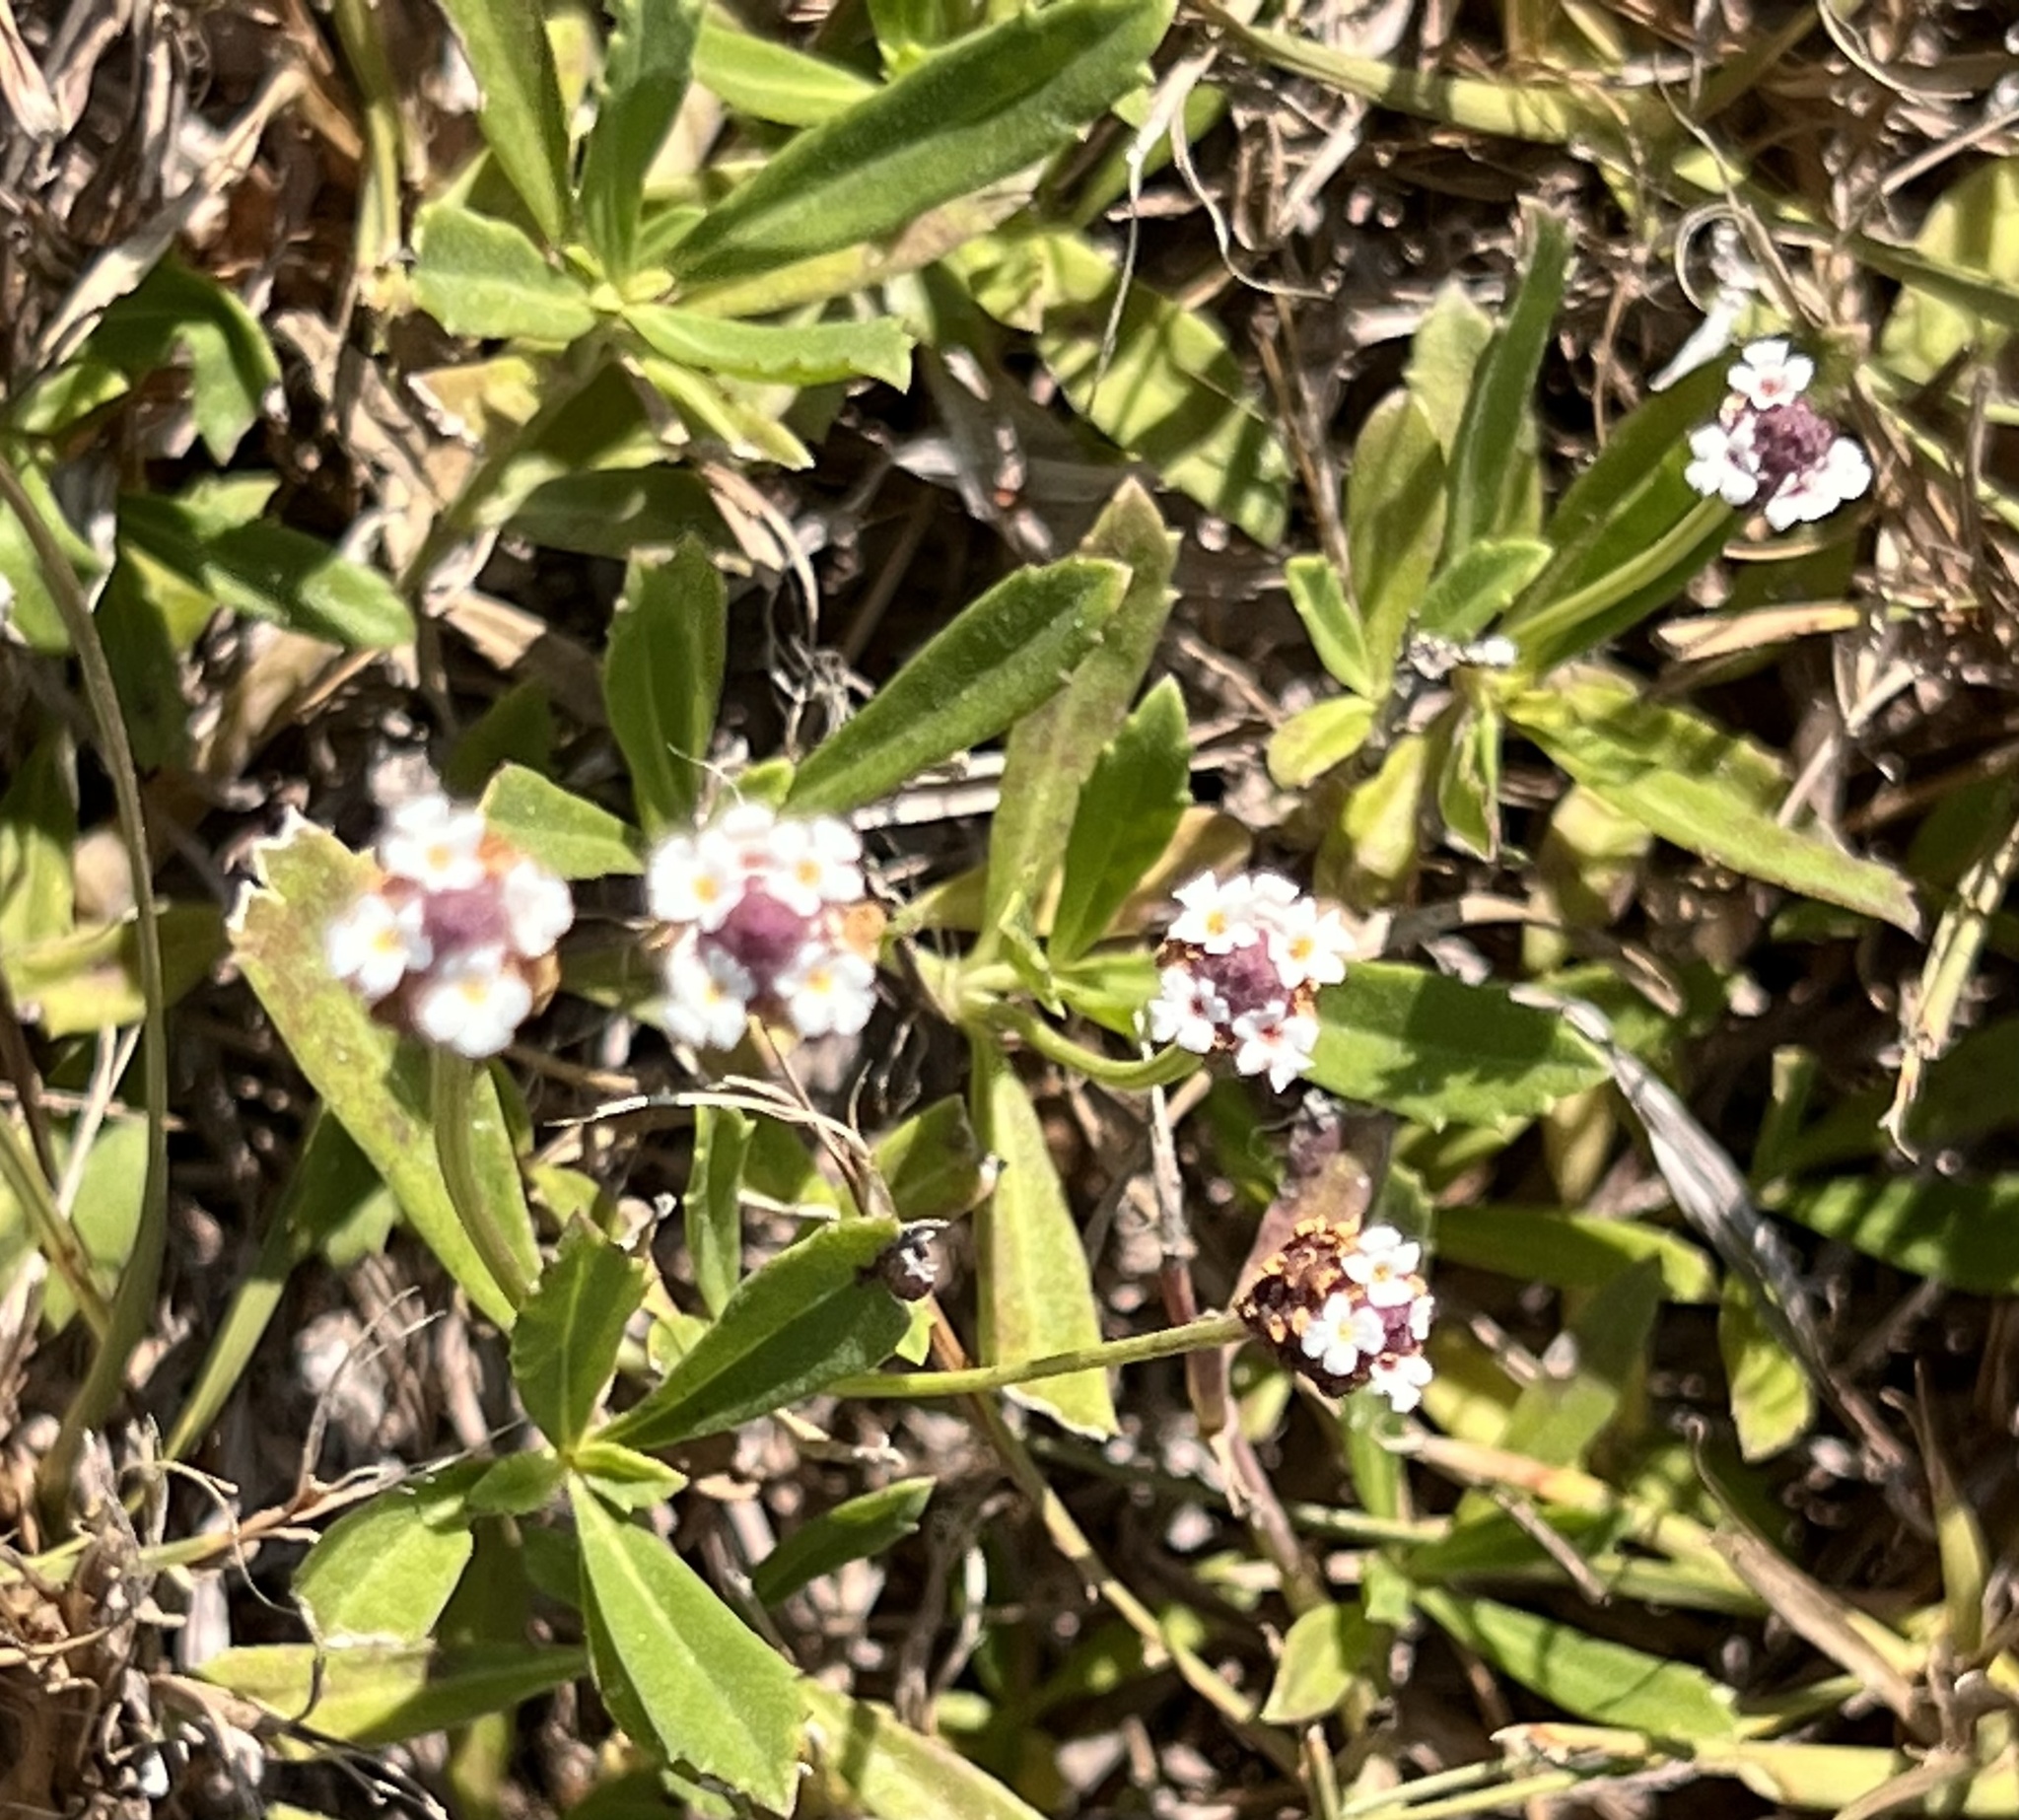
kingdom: Plantae
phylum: Tracheophyta
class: Magnoliopsida
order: Lamiales
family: Verbenaceae
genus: Phyla
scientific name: Phyla nodiflora
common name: Frogfruit
